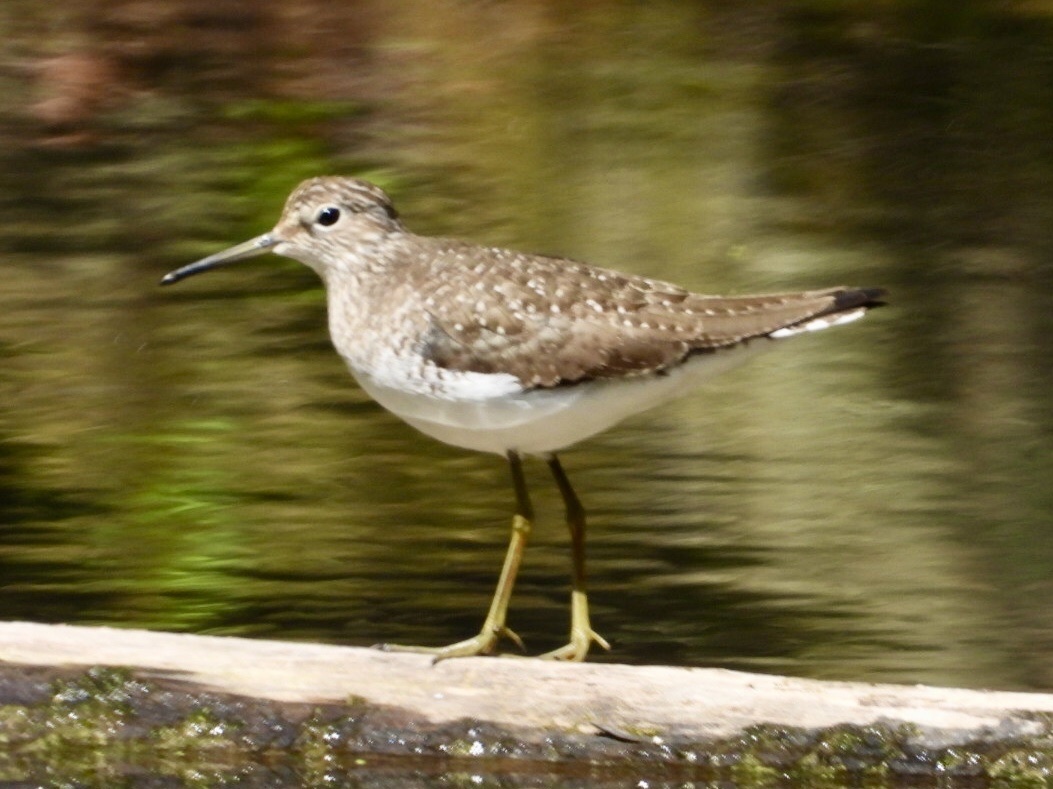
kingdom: Animalia
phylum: Chordata
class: Aves
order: Charadriiformes
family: Scolopacidae
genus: Tringa
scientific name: Tringa solitaria
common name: Solitary sandpiper
